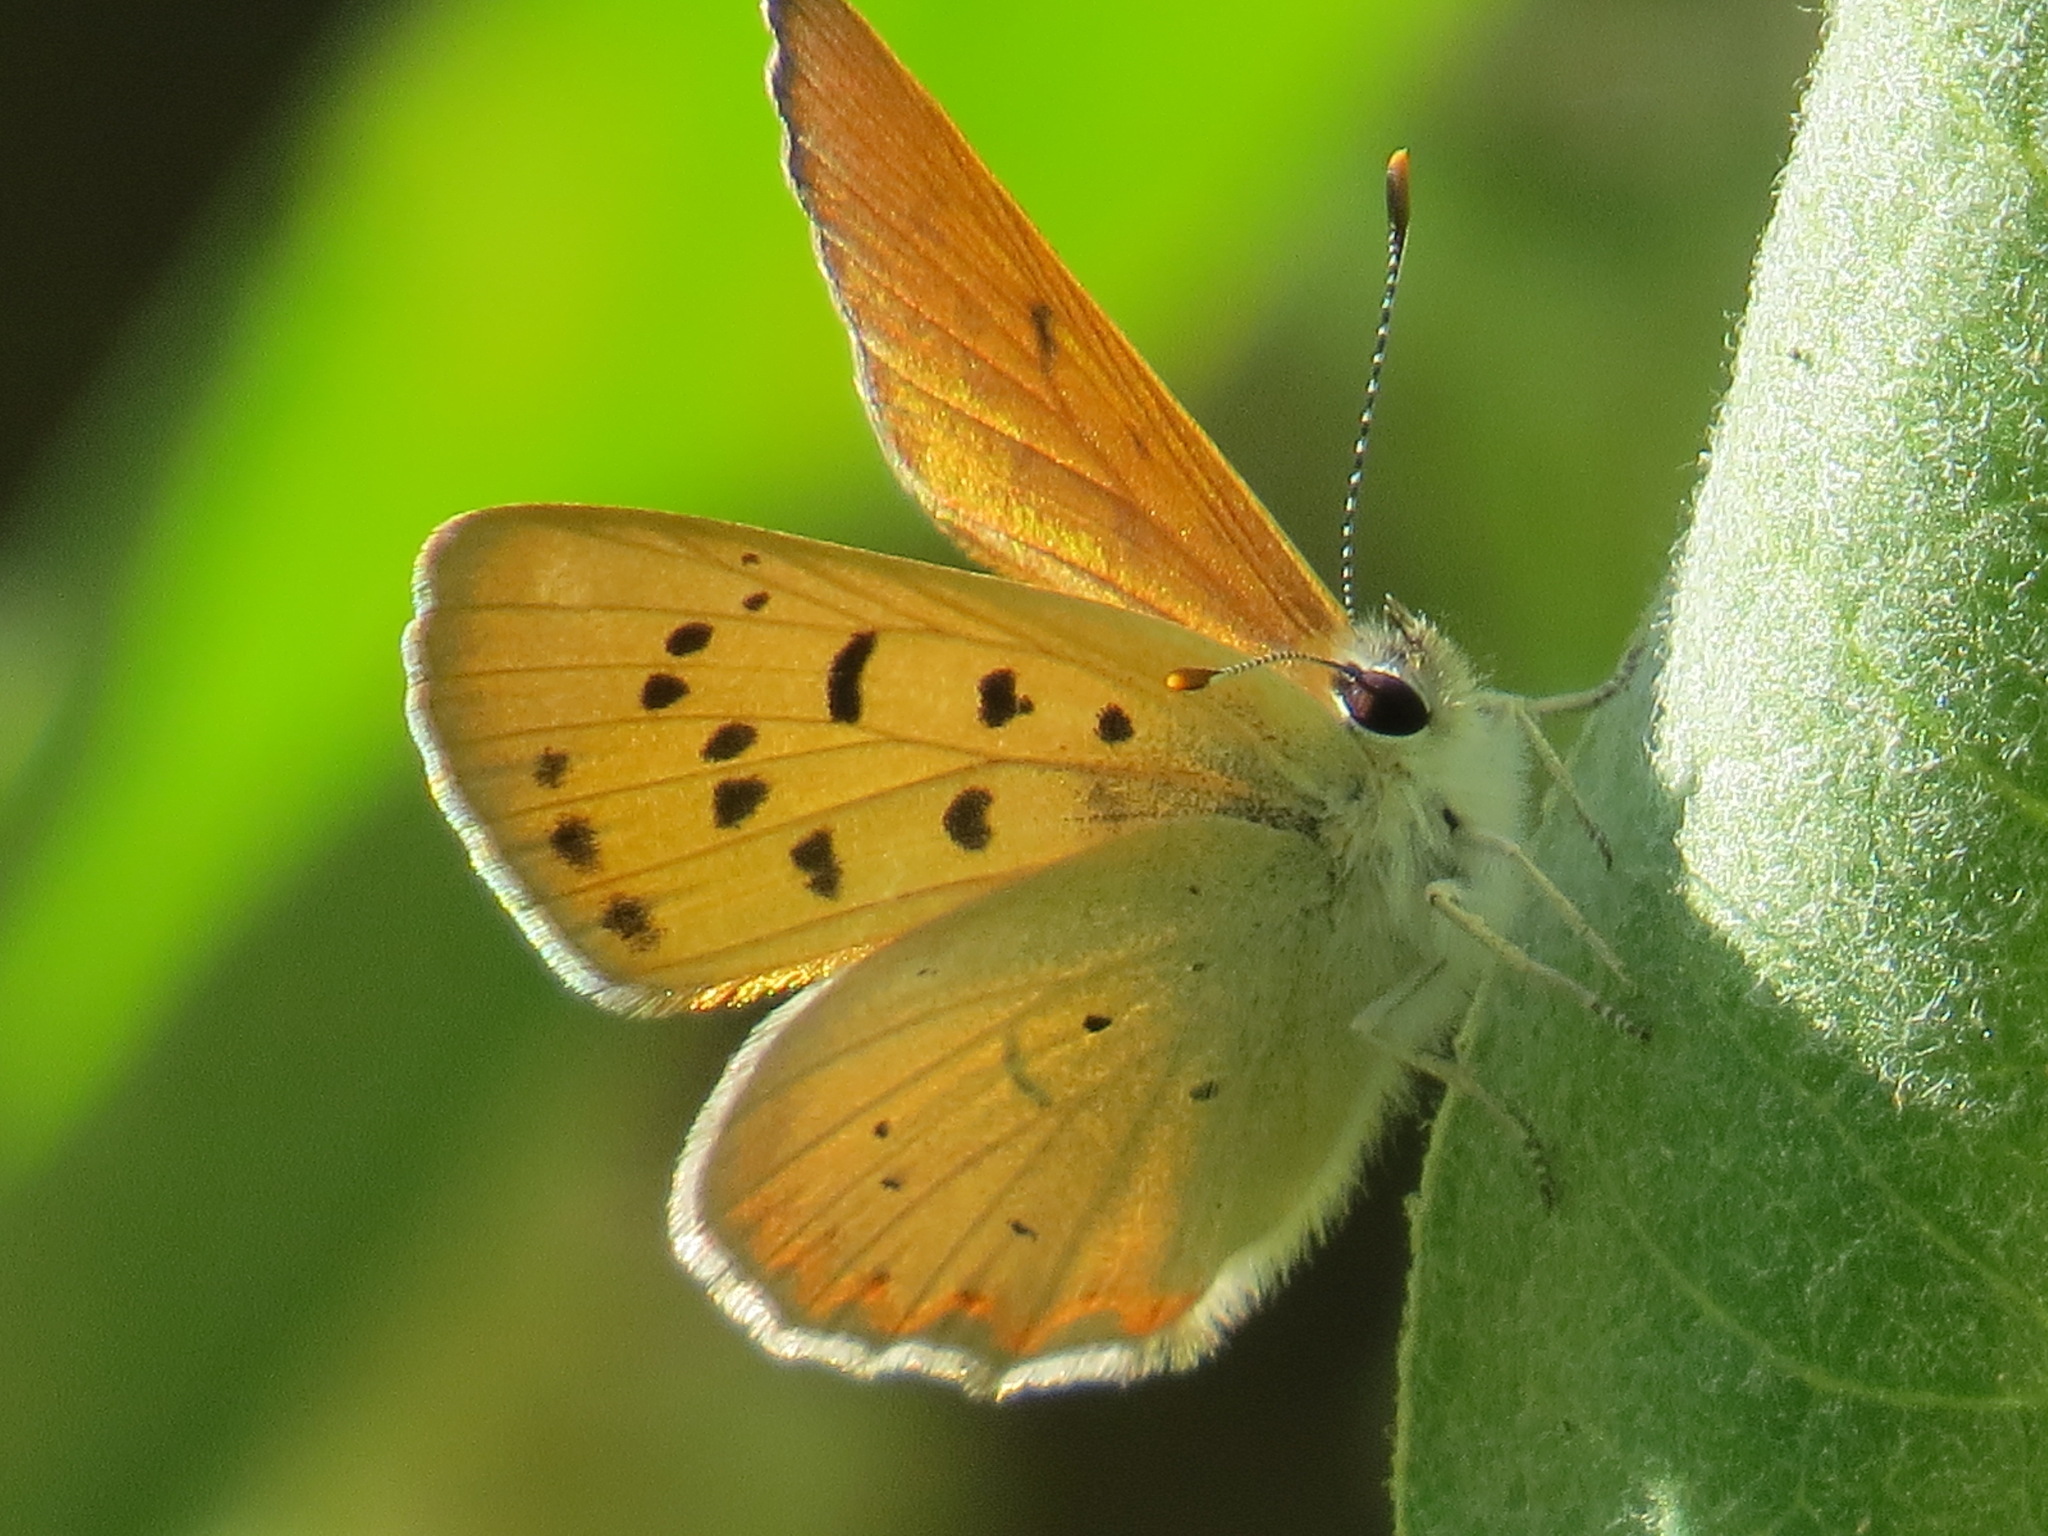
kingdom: Animalia
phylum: Arthropoda
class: Insecta
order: Lepidoptera
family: Lycaenidae
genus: Tharsalea
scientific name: Tharsalea nivalis
